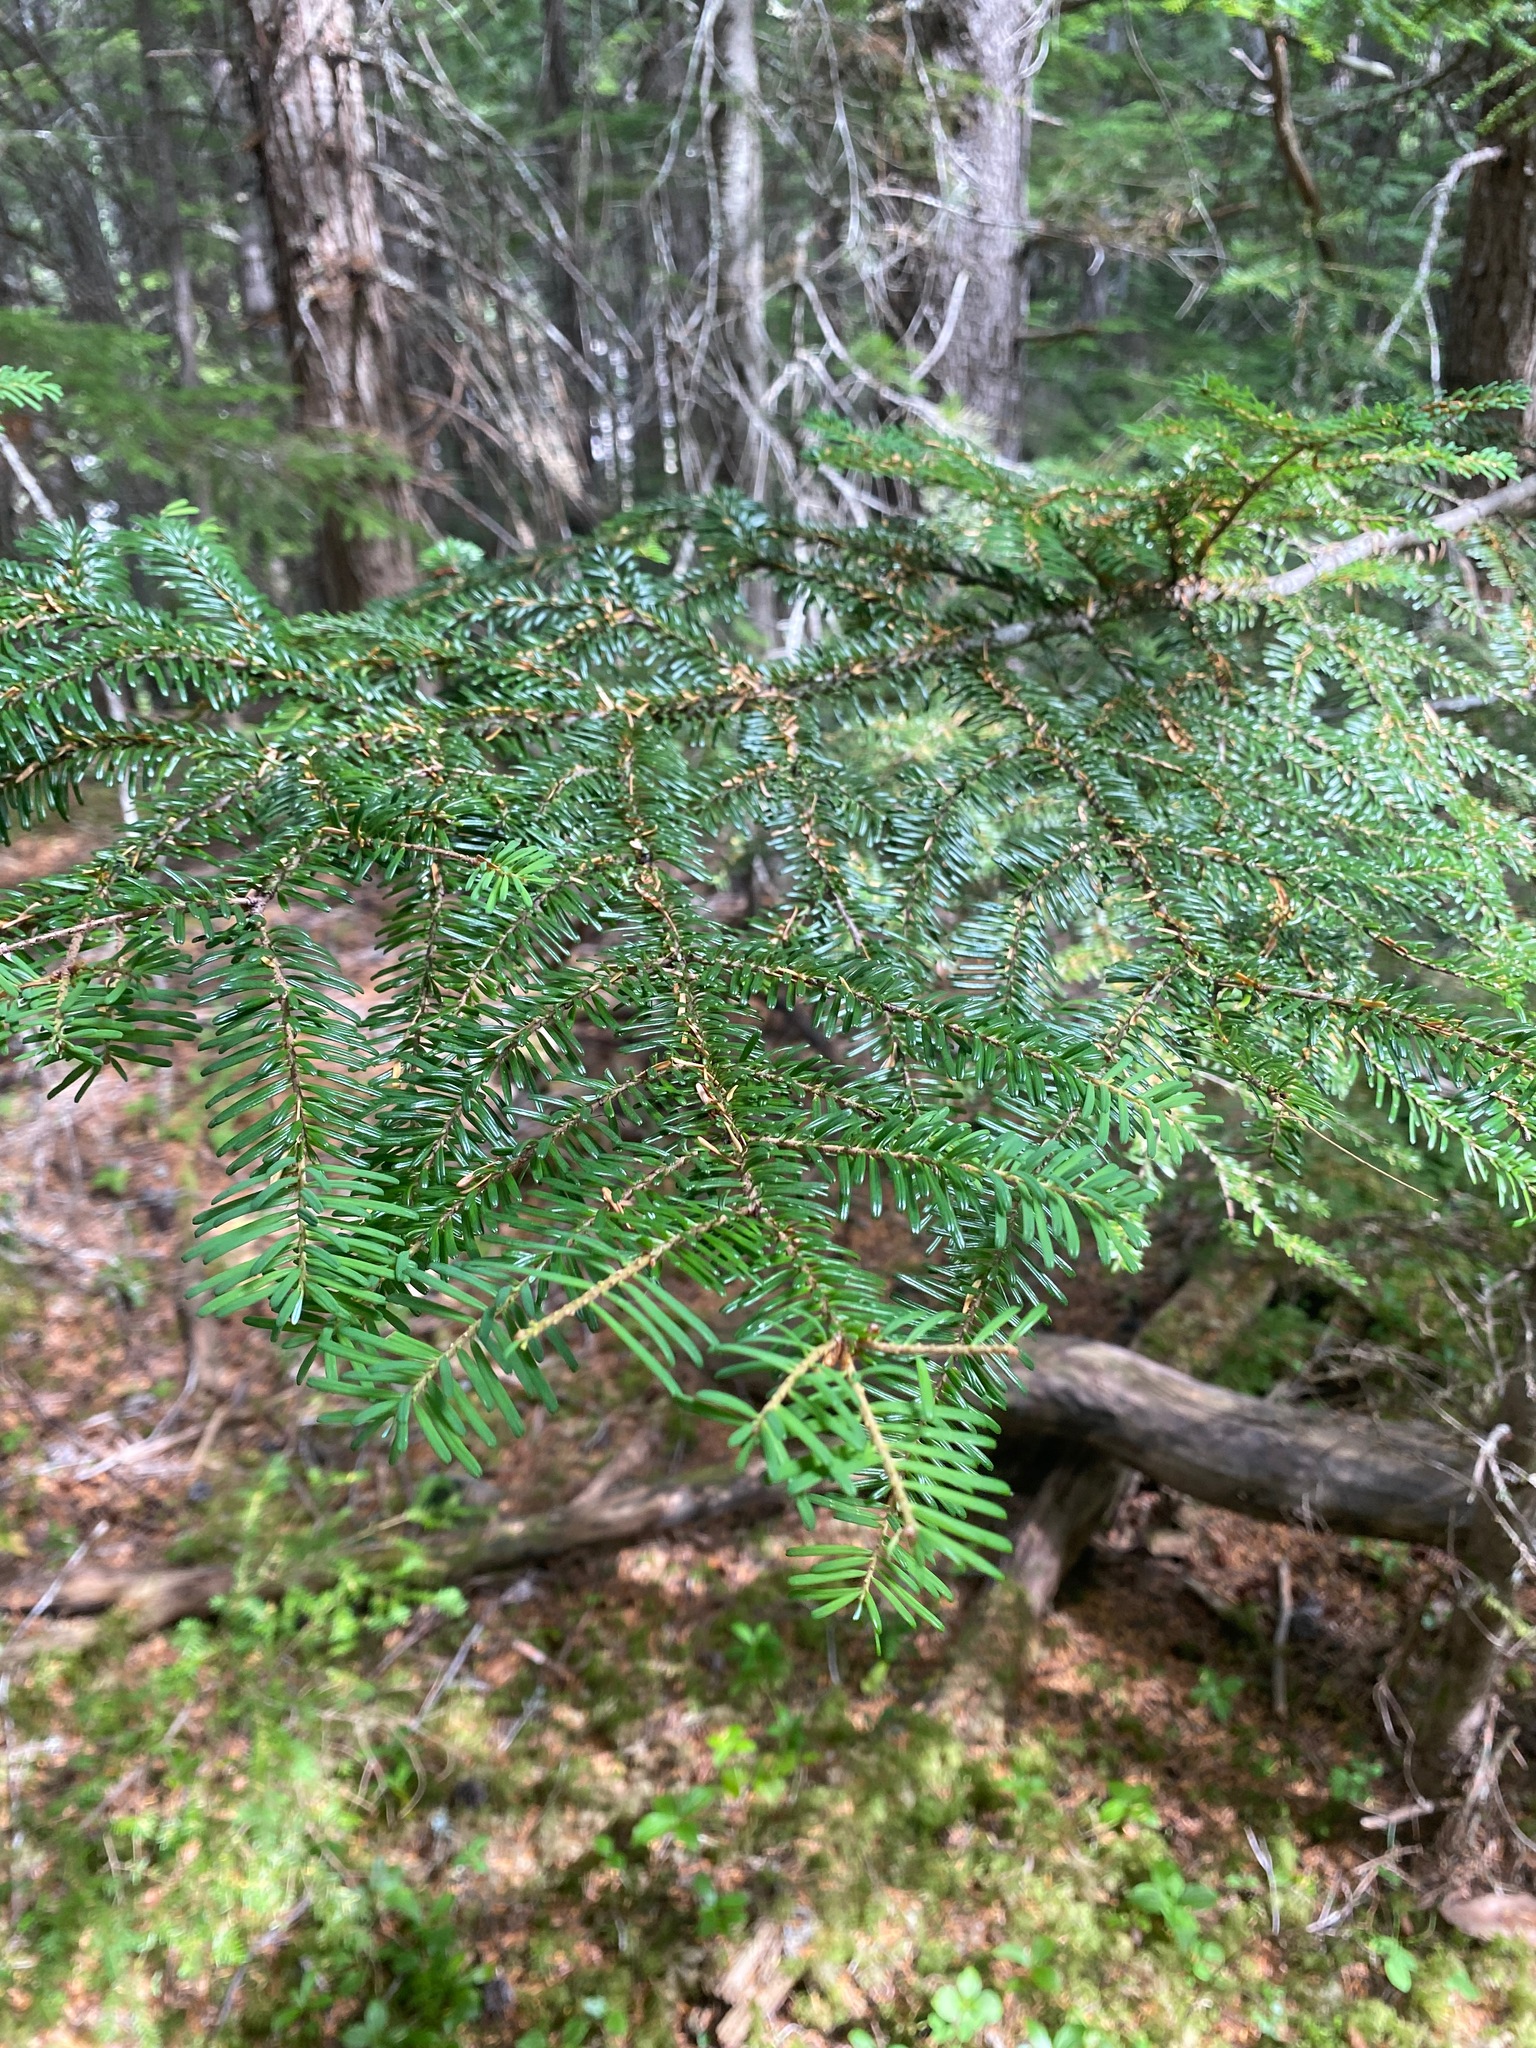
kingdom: Plantae
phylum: Tracheophyta
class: Pinopsida
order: Pinales
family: Pinaceae
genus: Abies
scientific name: Abies amabilis
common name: Pacific silver fir
